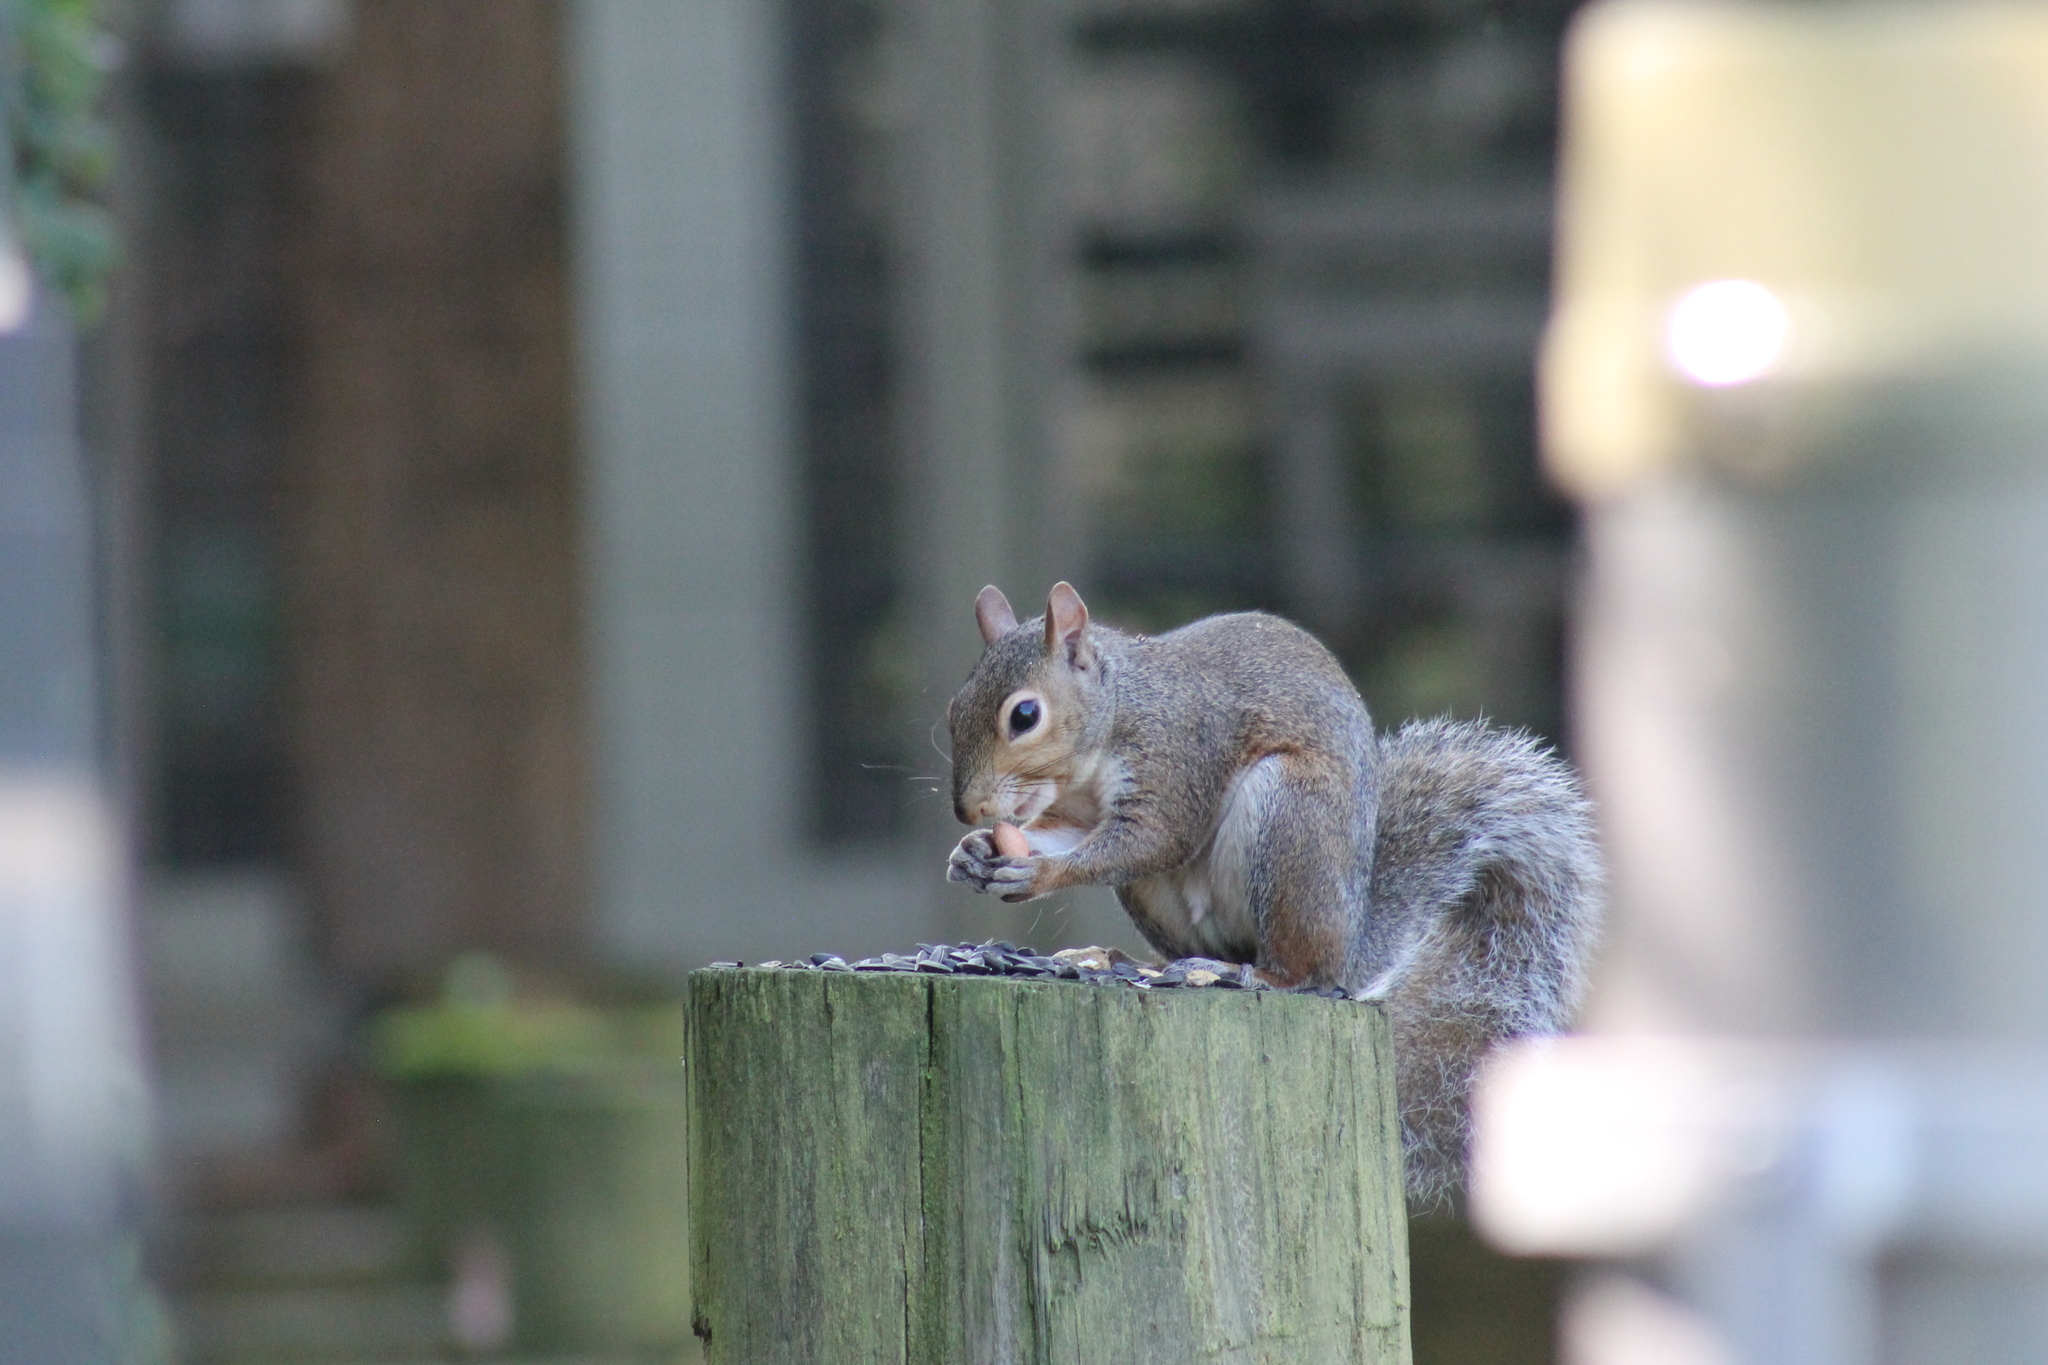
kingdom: Animalia
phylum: Chordata
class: Mammalia
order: Rodentia
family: Sciuridae
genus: Sciurus
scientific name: Sciurus carolinensis
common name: Eastern gray squirrel
